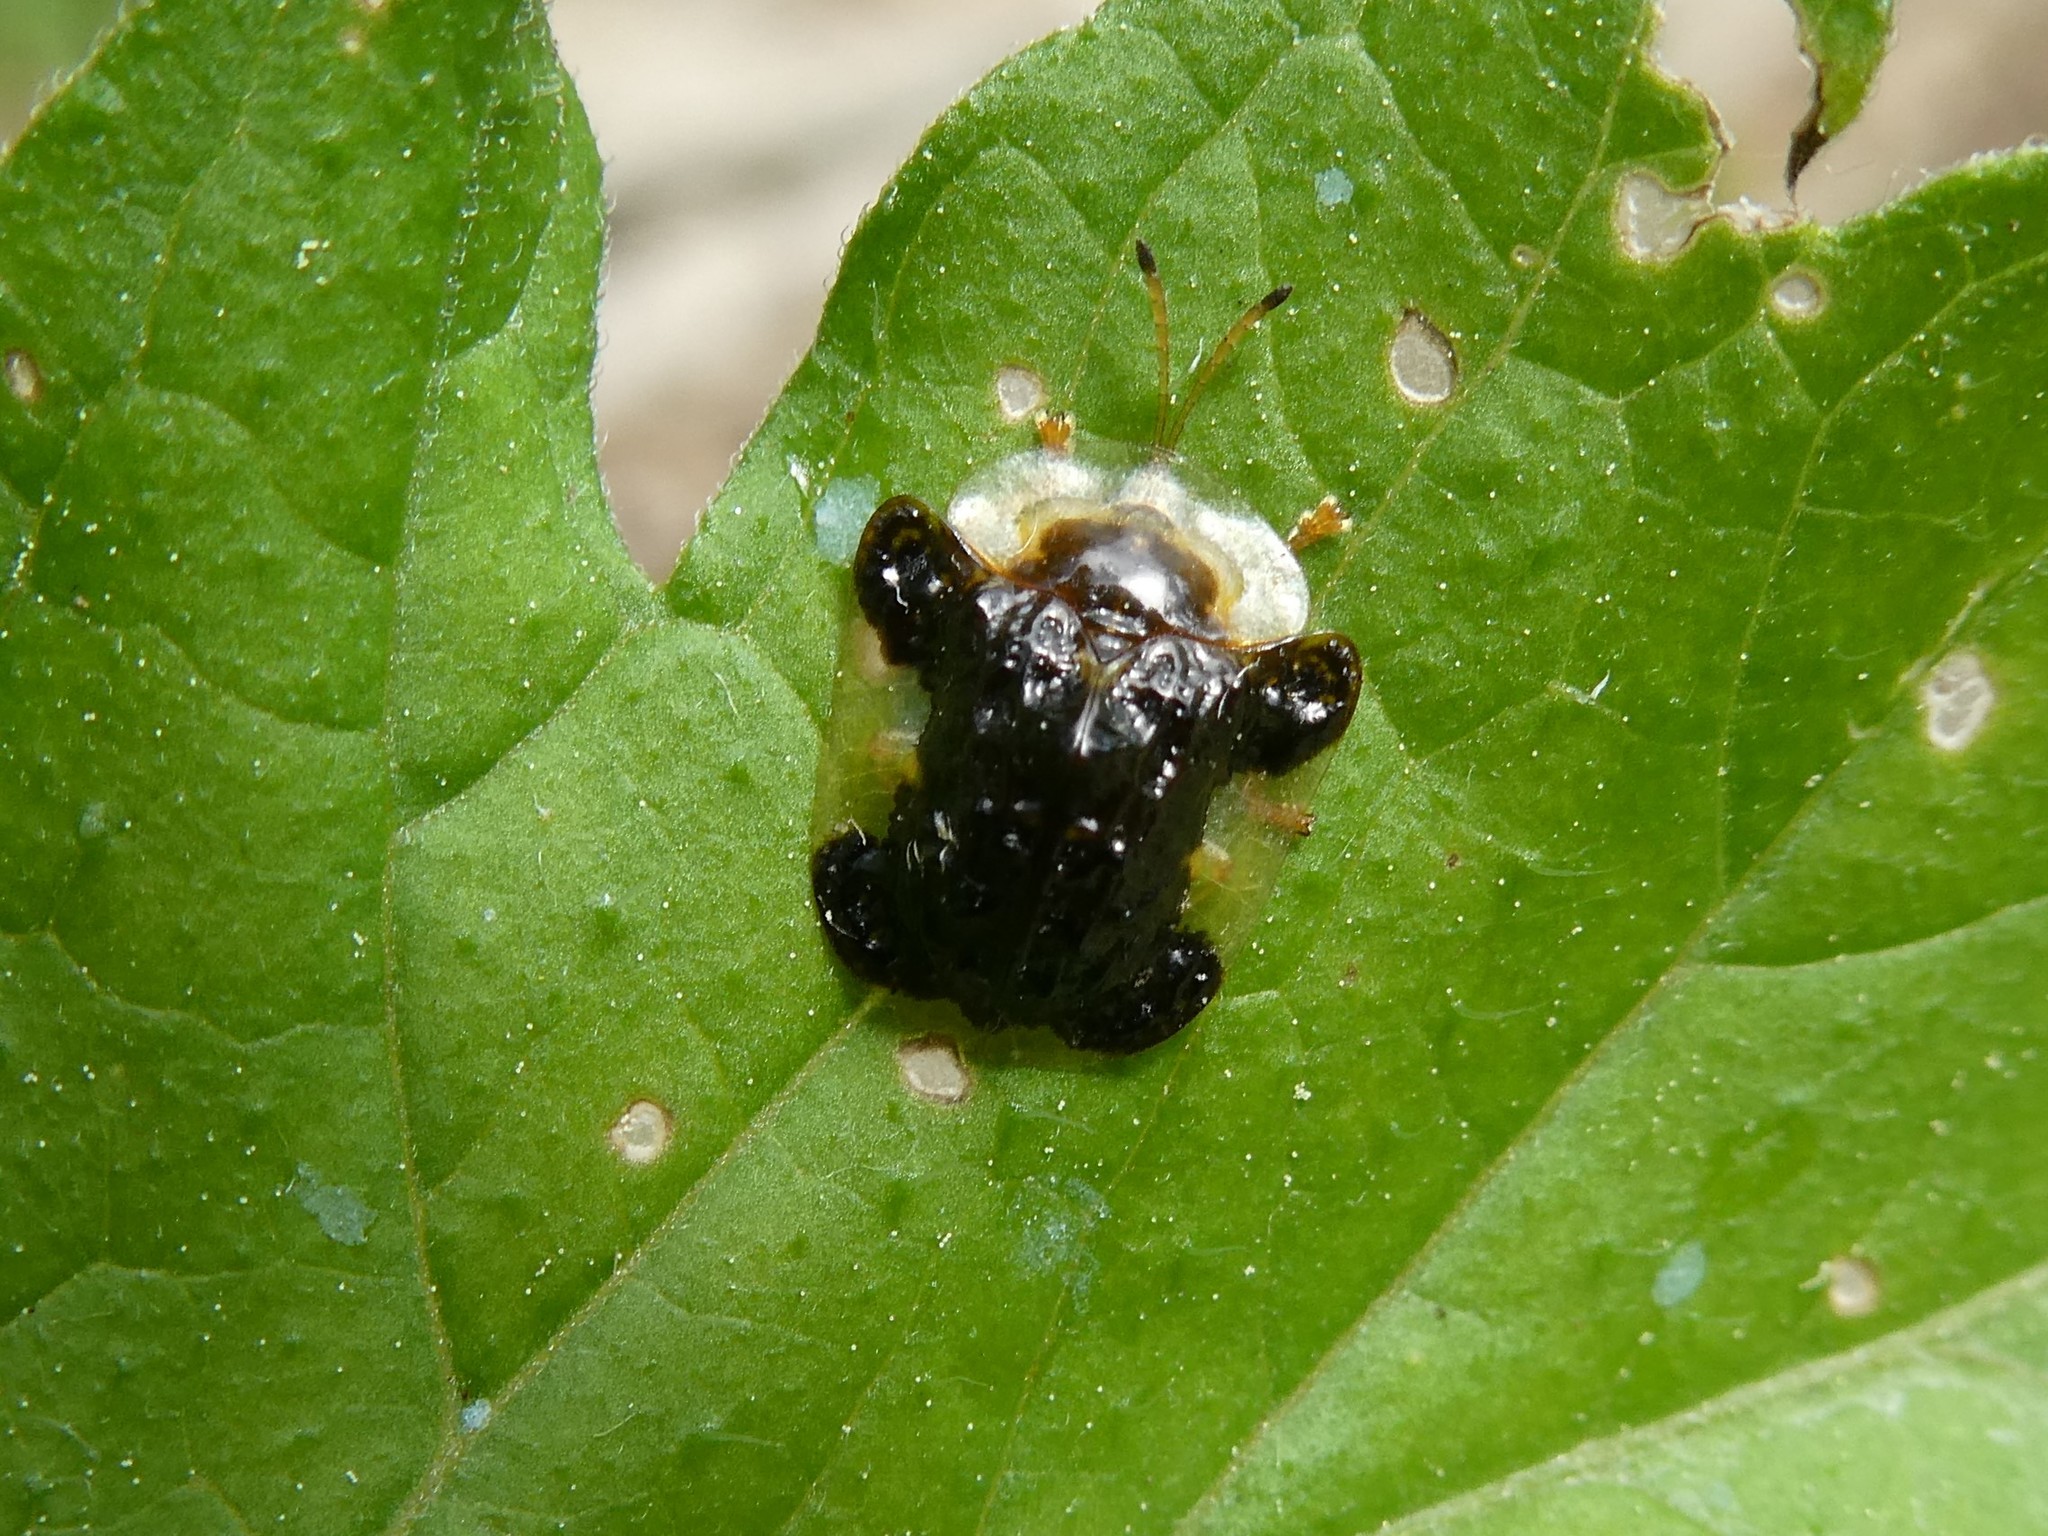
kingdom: Animalia
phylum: Arthropoda
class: Insecta
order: Coleoptera
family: Chrysomelidae
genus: Helocassis
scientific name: Helocassis clavata
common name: Clavate tortoise beetle
